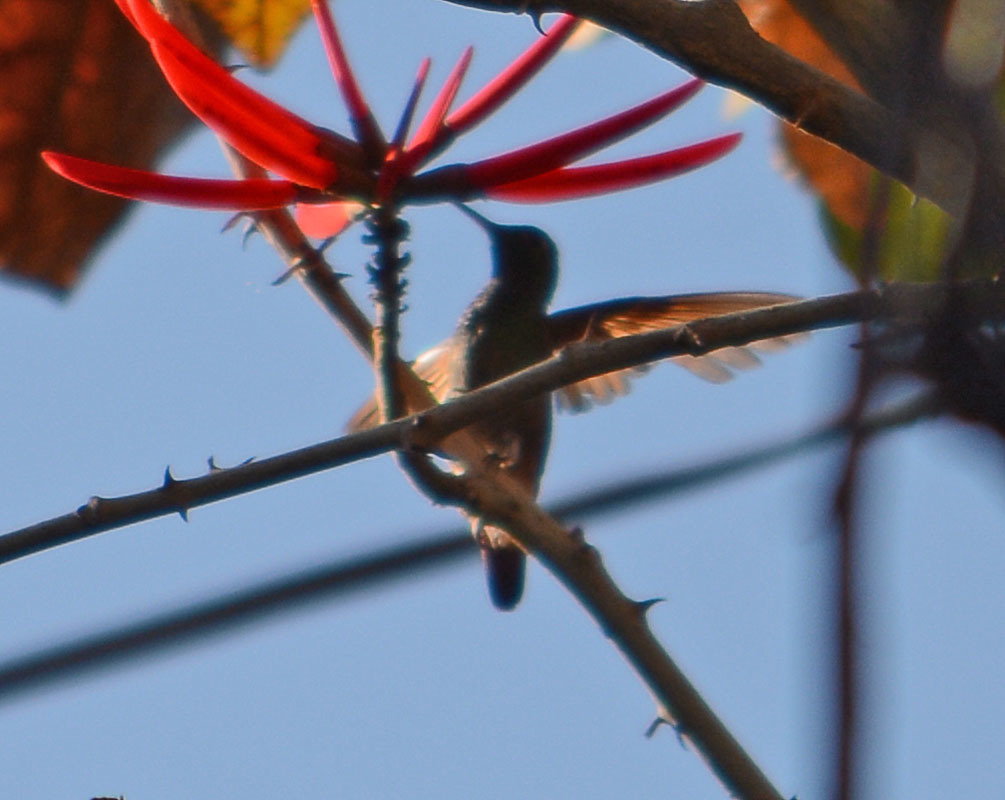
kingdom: Animalia
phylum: Chordata
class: Aves
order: Apodiformes
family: Trochilidae
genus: Saucerottia
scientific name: Saucerottia beryllina
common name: Berylline hummingbird
